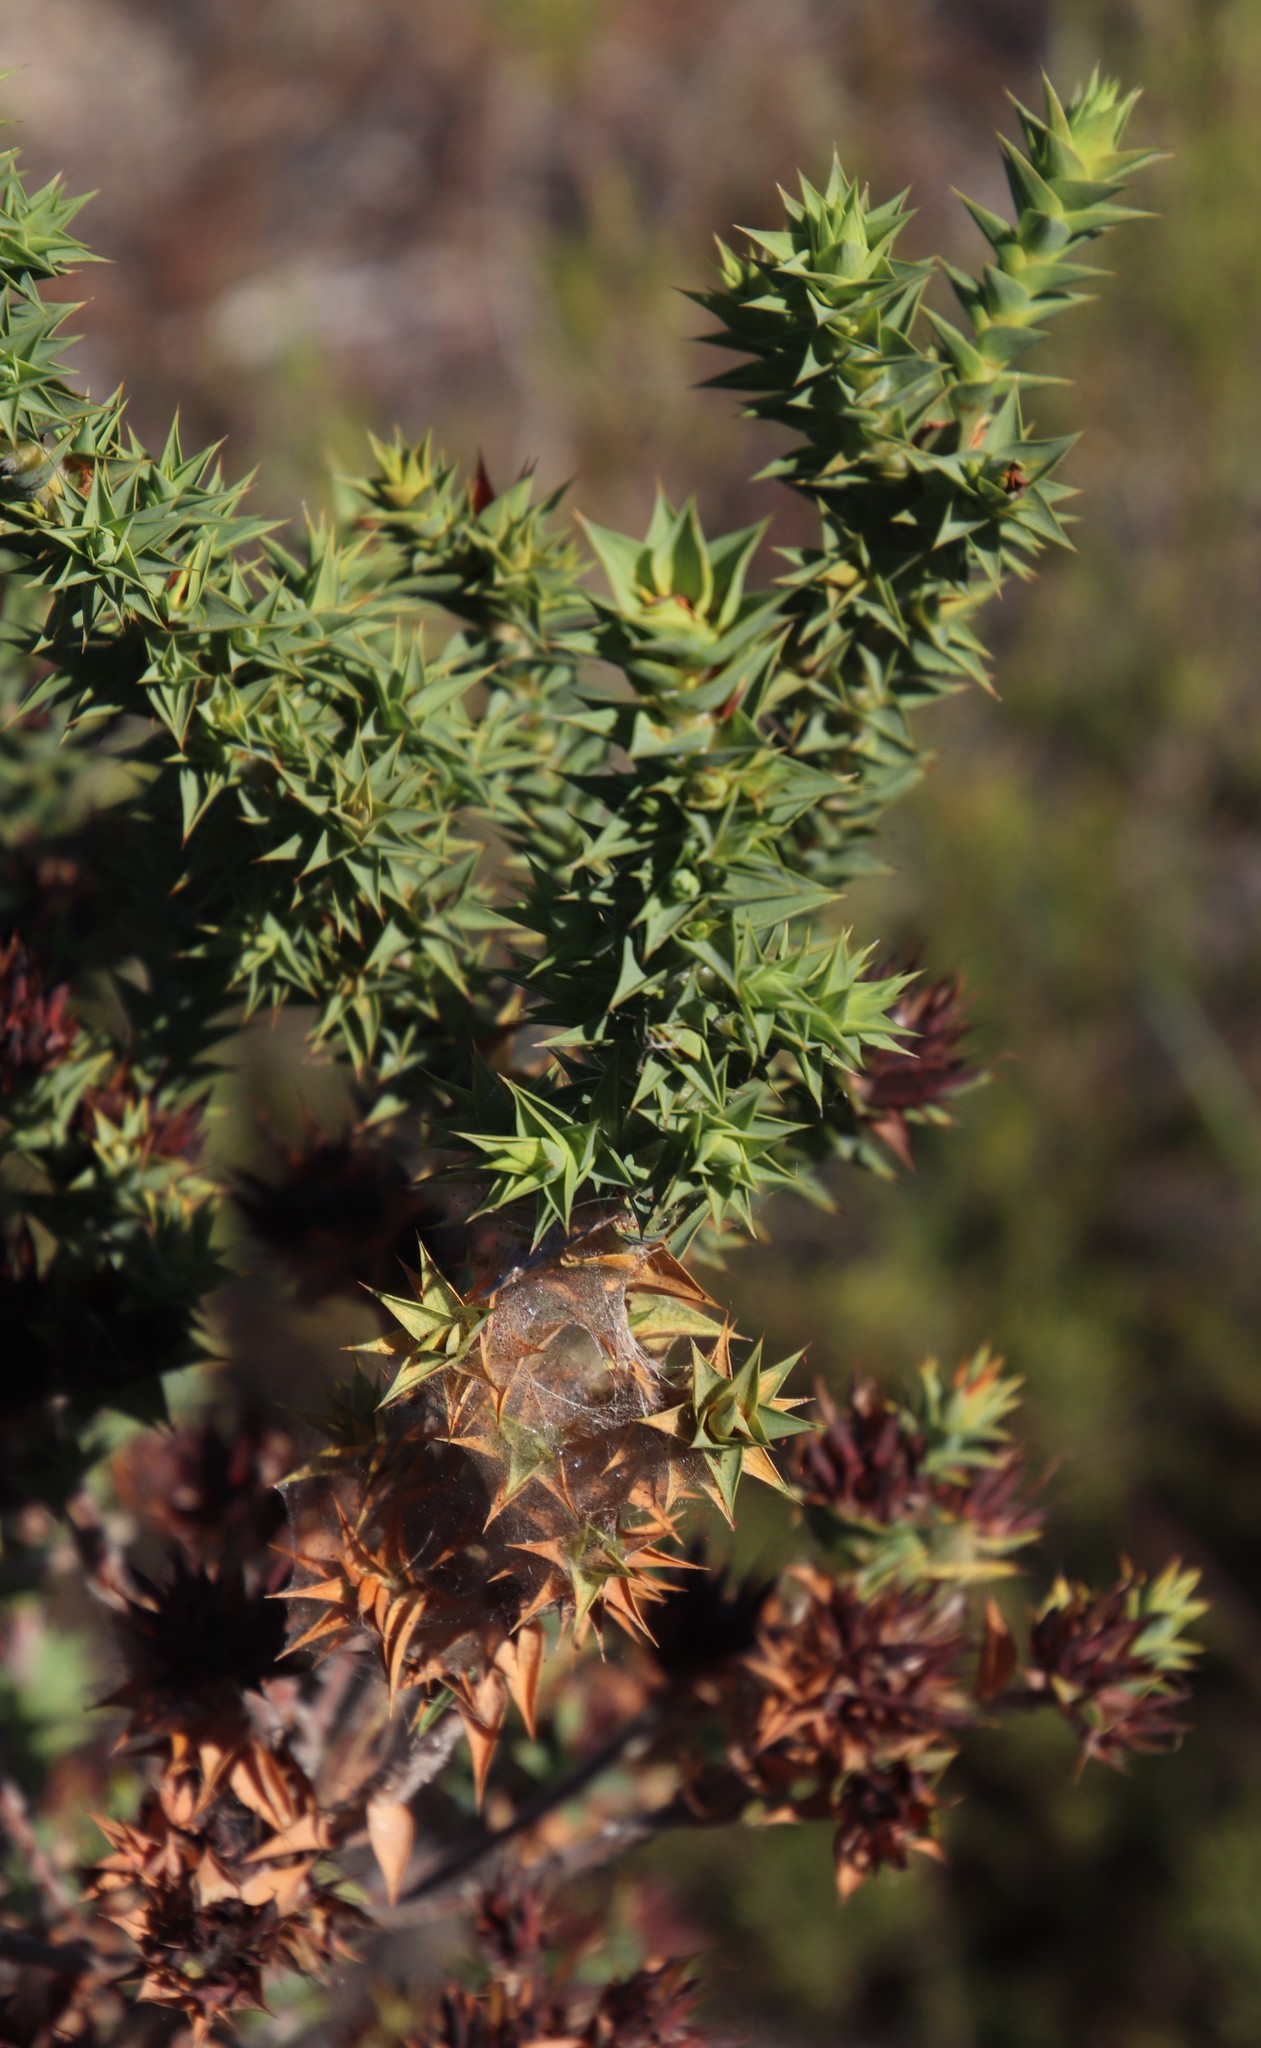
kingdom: Plantae
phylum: Tracheophyta
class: Magnoliopsida
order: Fabales
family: Fabaceae
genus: Aspalathus
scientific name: Aspalathus cordata
